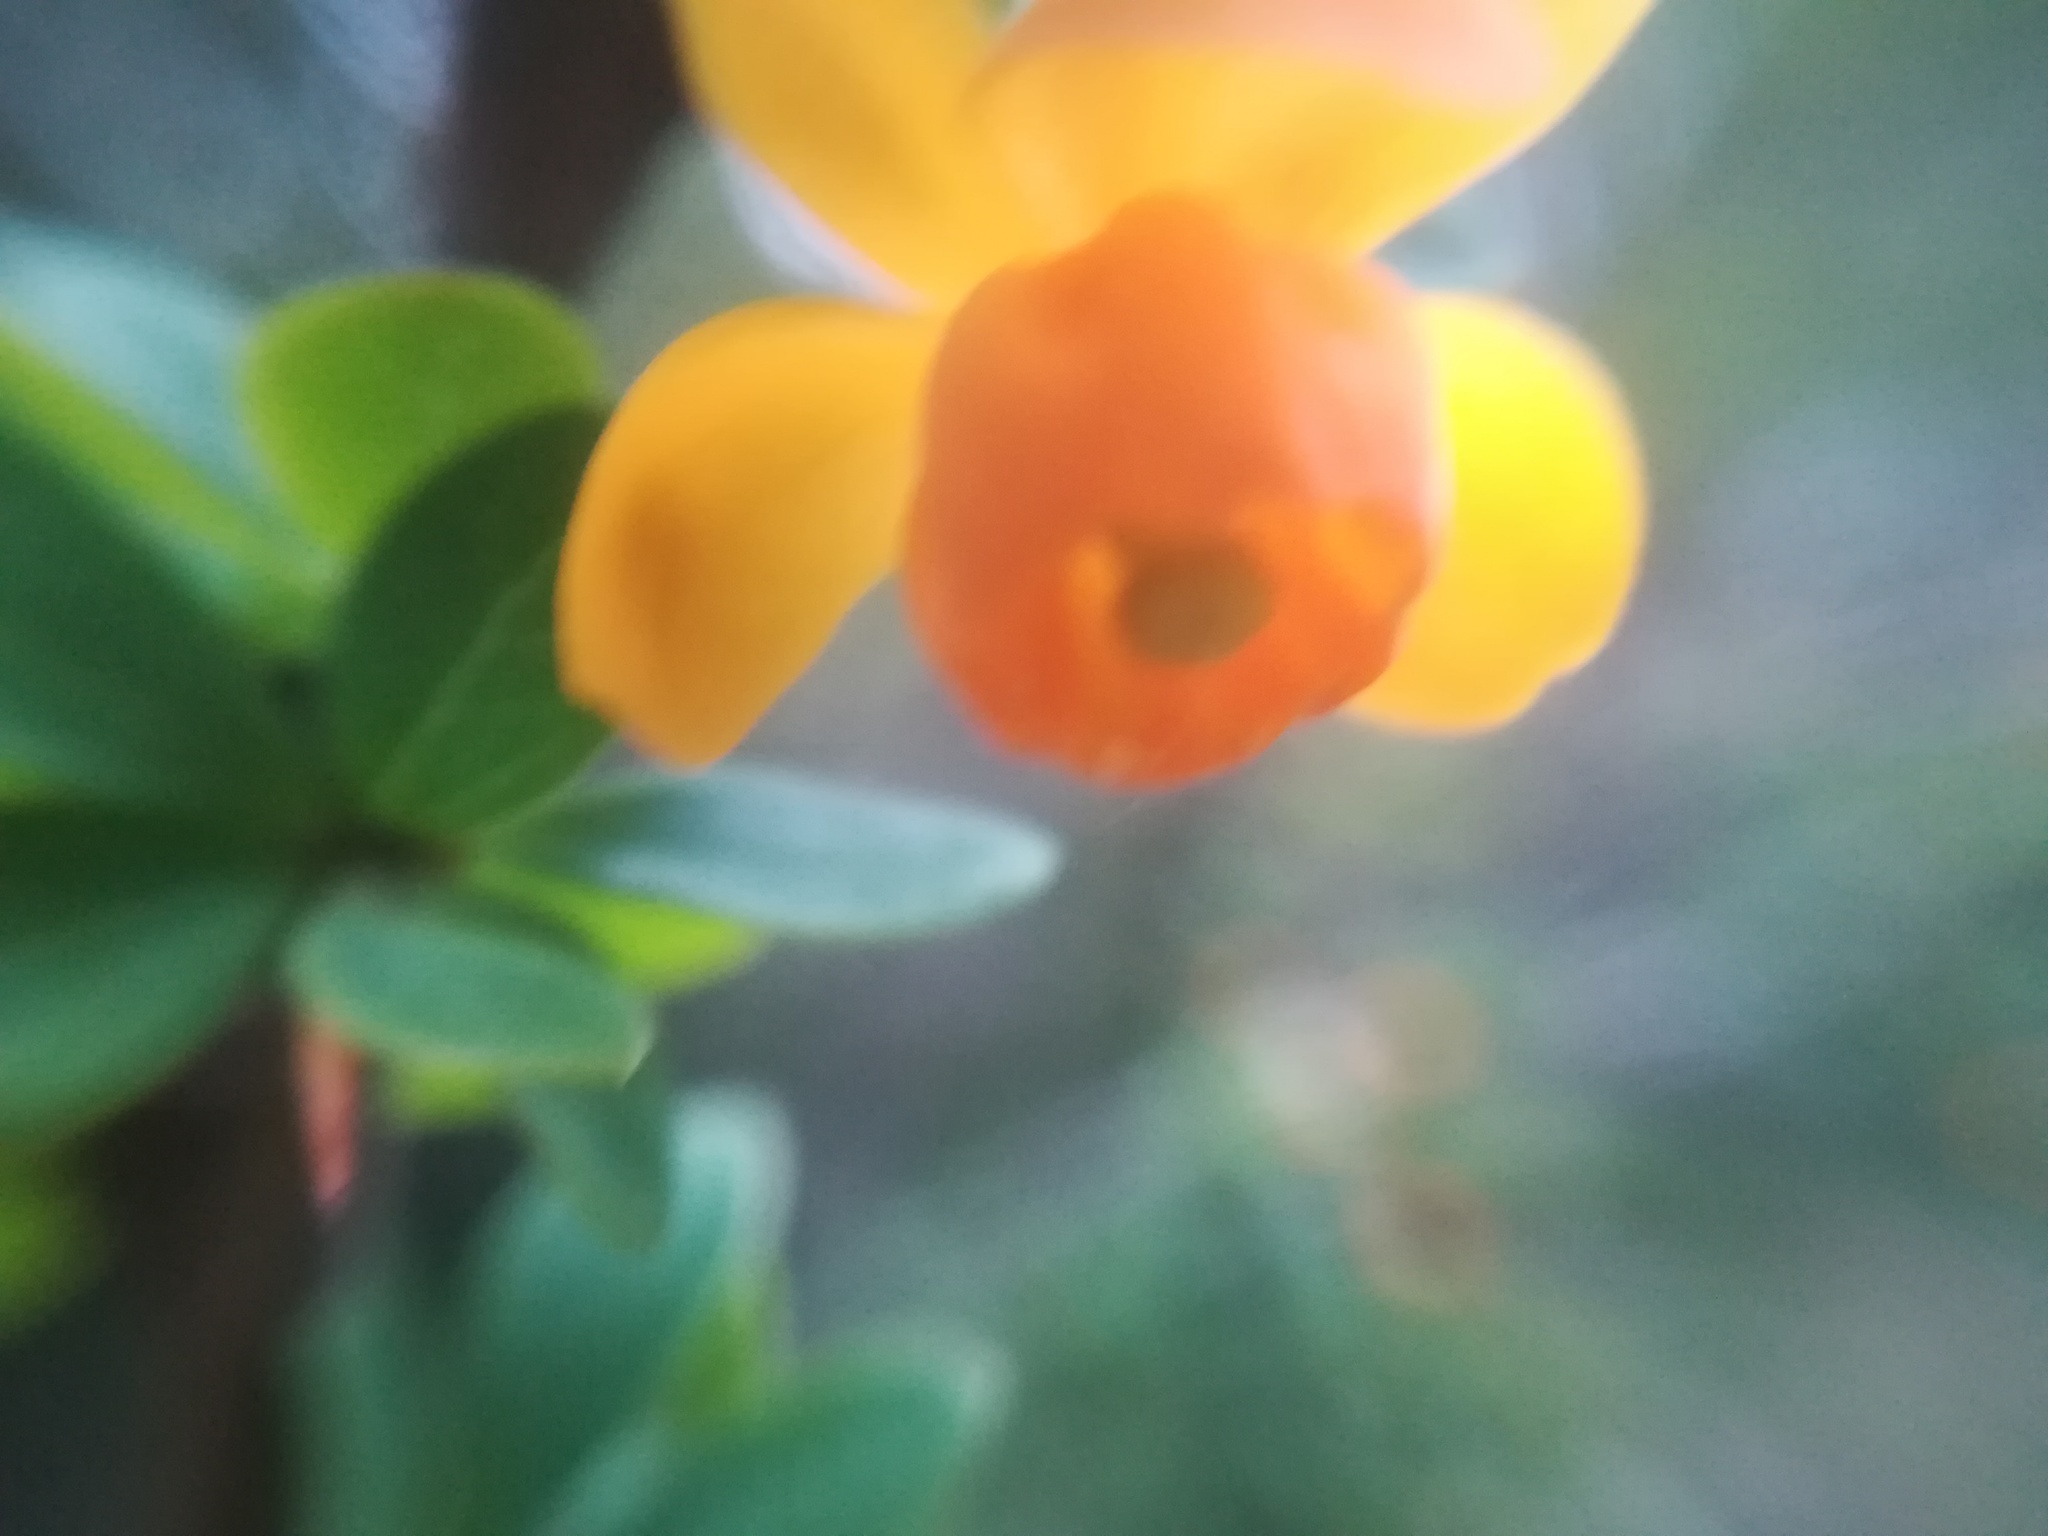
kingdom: Plantae
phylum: Tracheophyta
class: Magnoliopsida
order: Ranunculales
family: Berberidaceae
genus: Berberis
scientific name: Berberis microphylla
